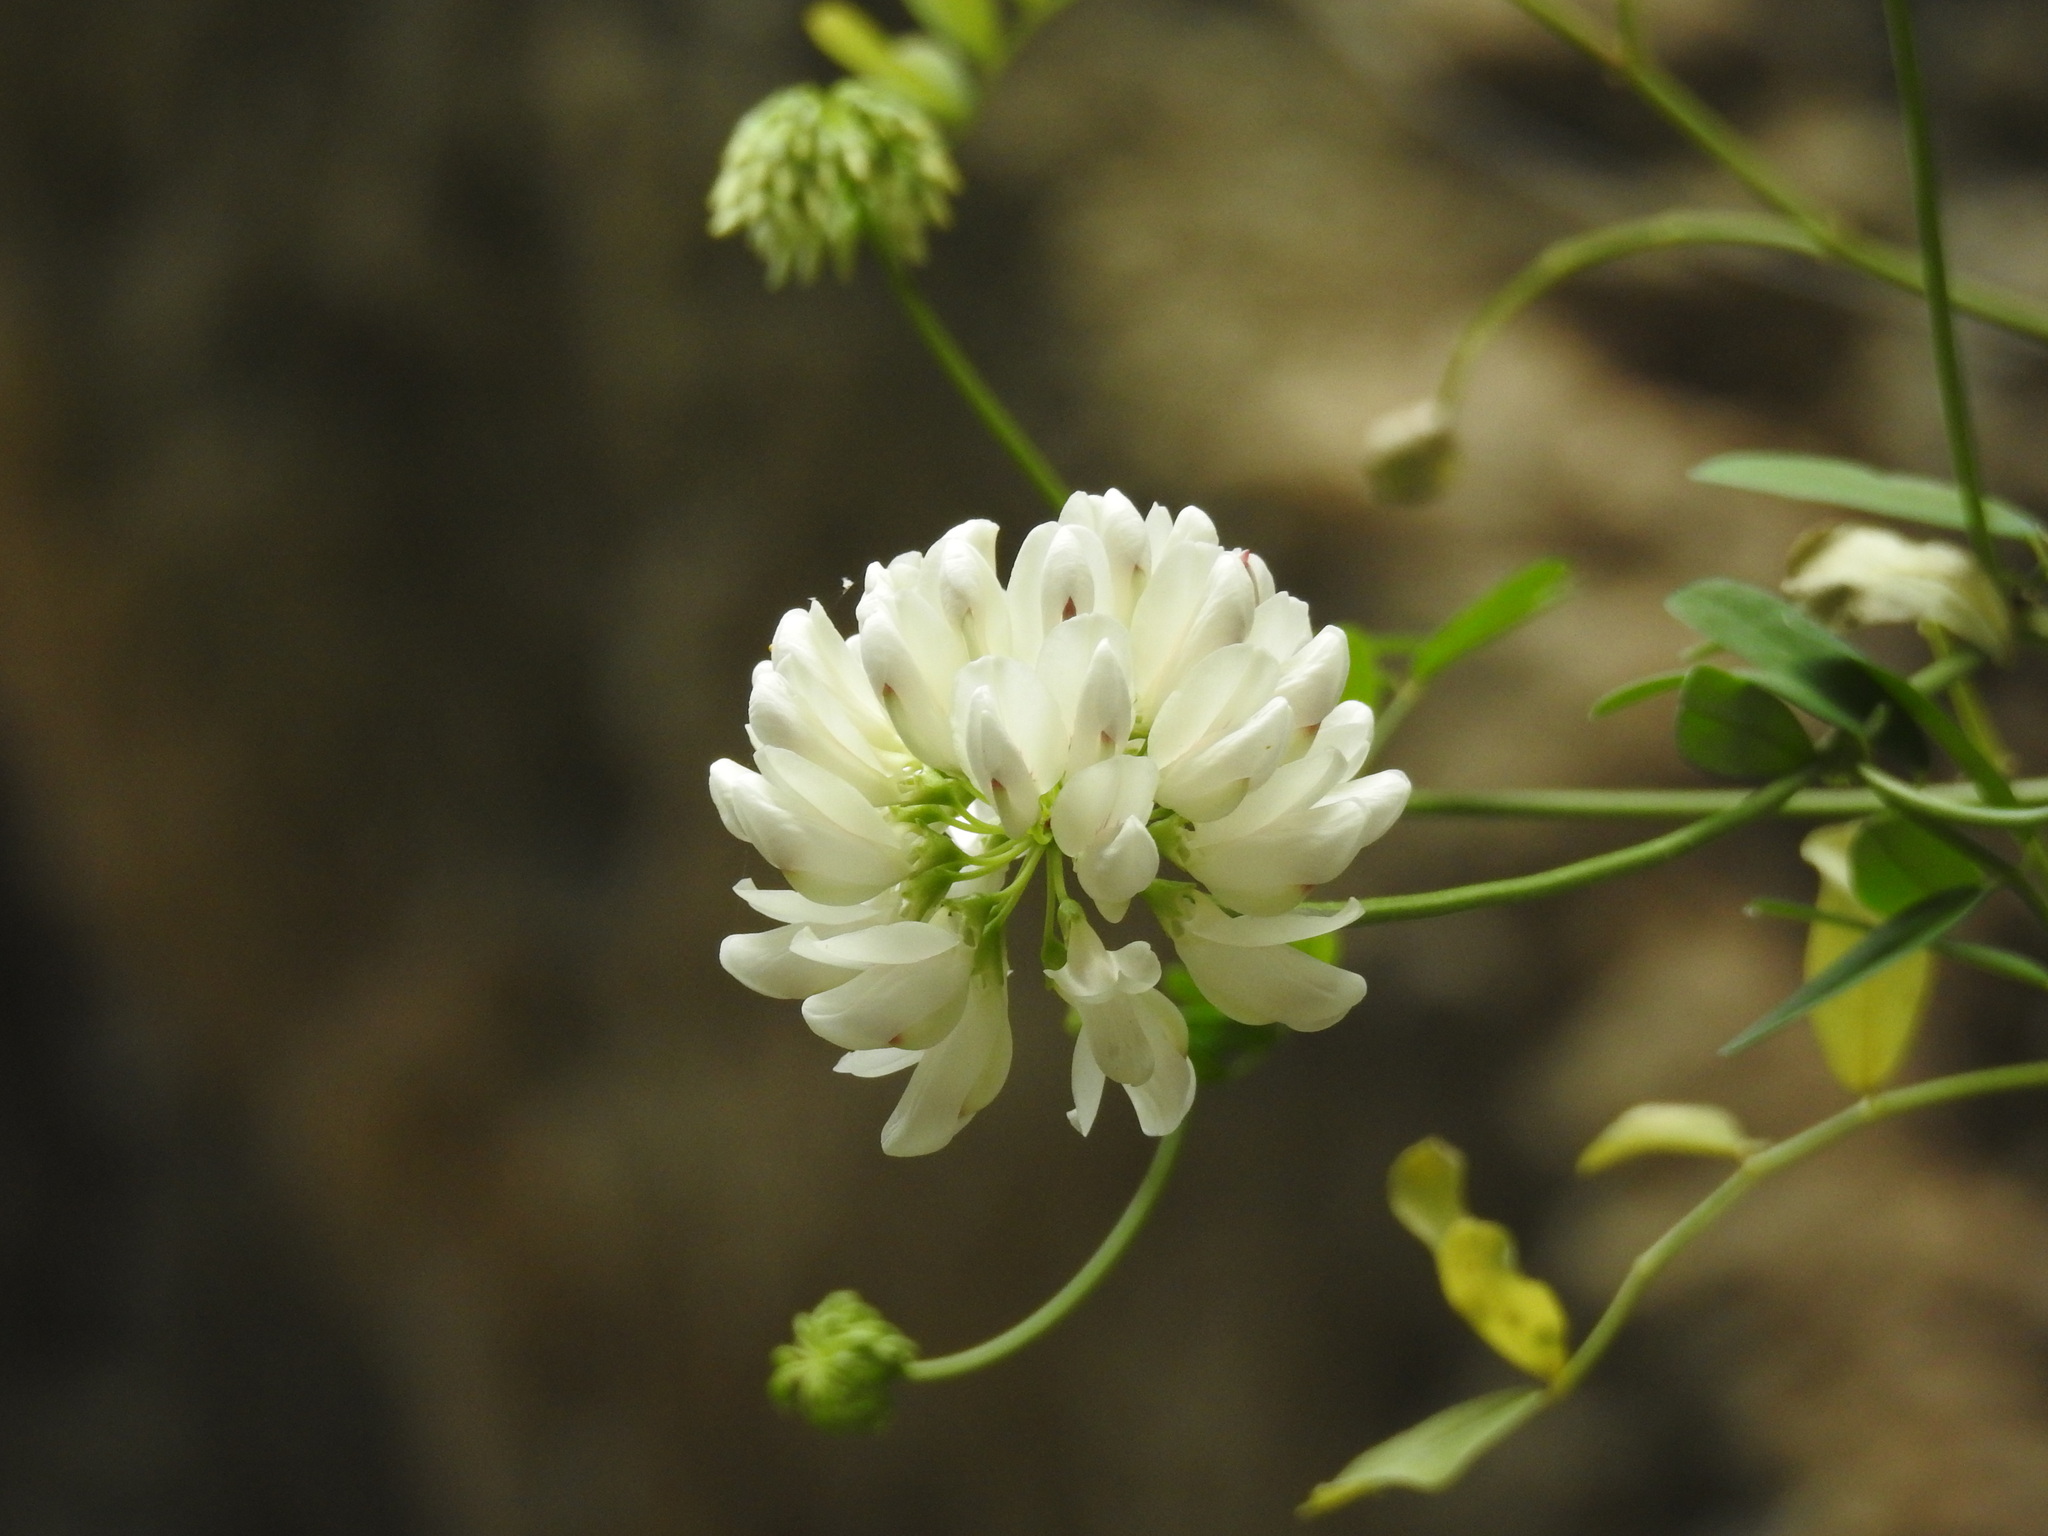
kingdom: Plantae
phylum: Tracheophyta
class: Magnoliopsida
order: Fabales
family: Fabaceae
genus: Coronilla
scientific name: Coronilla globosa
